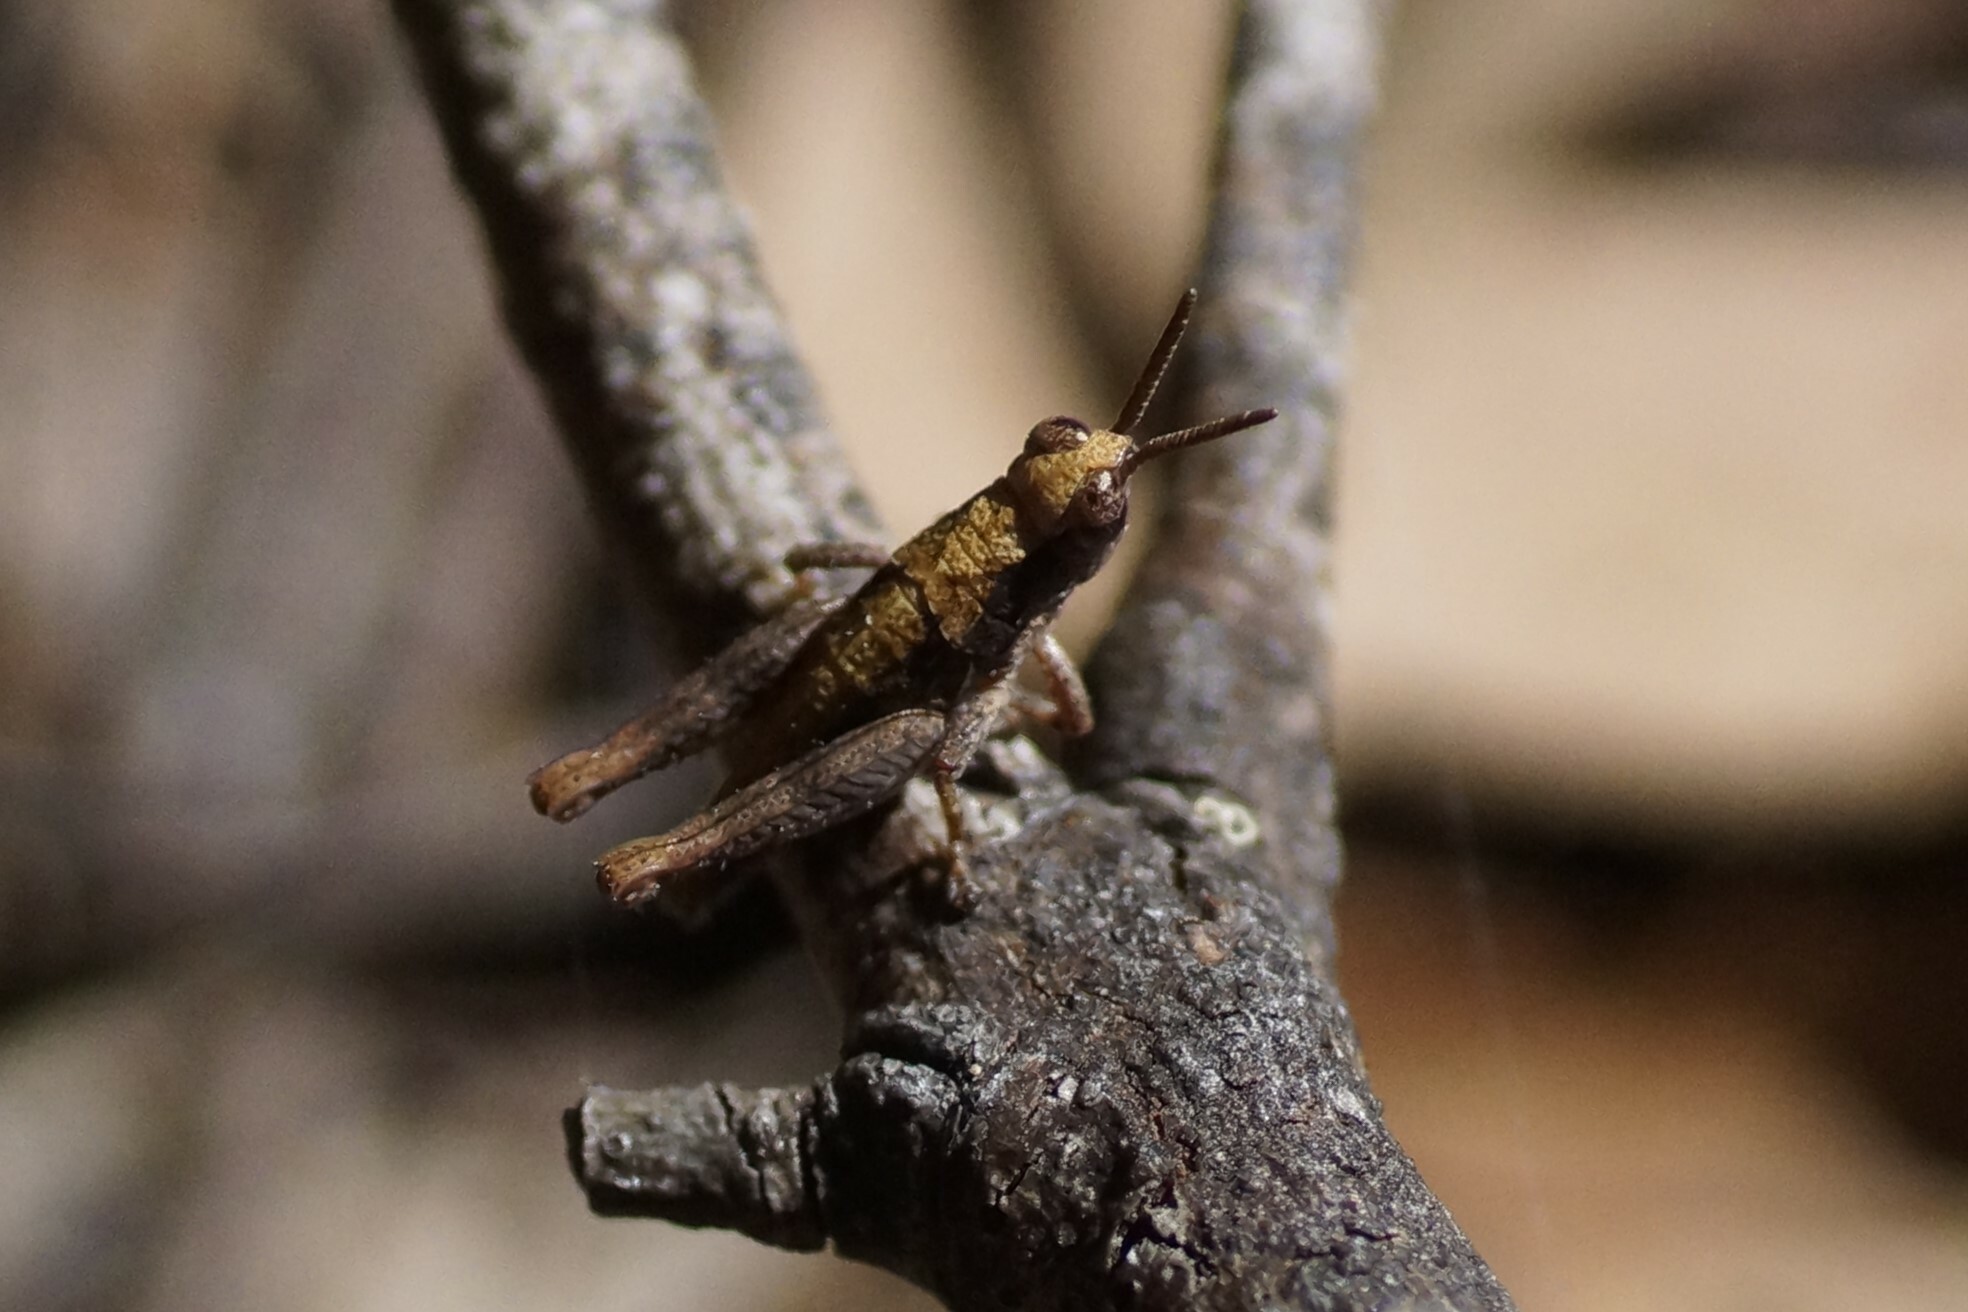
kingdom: Animalia
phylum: Arthropoda
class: Insecta
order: Orthoptera
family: Acrididae
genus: Tasmaniacris
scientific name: Tasmaniacris tasmaniensis
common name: Tasmanian grasshopper
